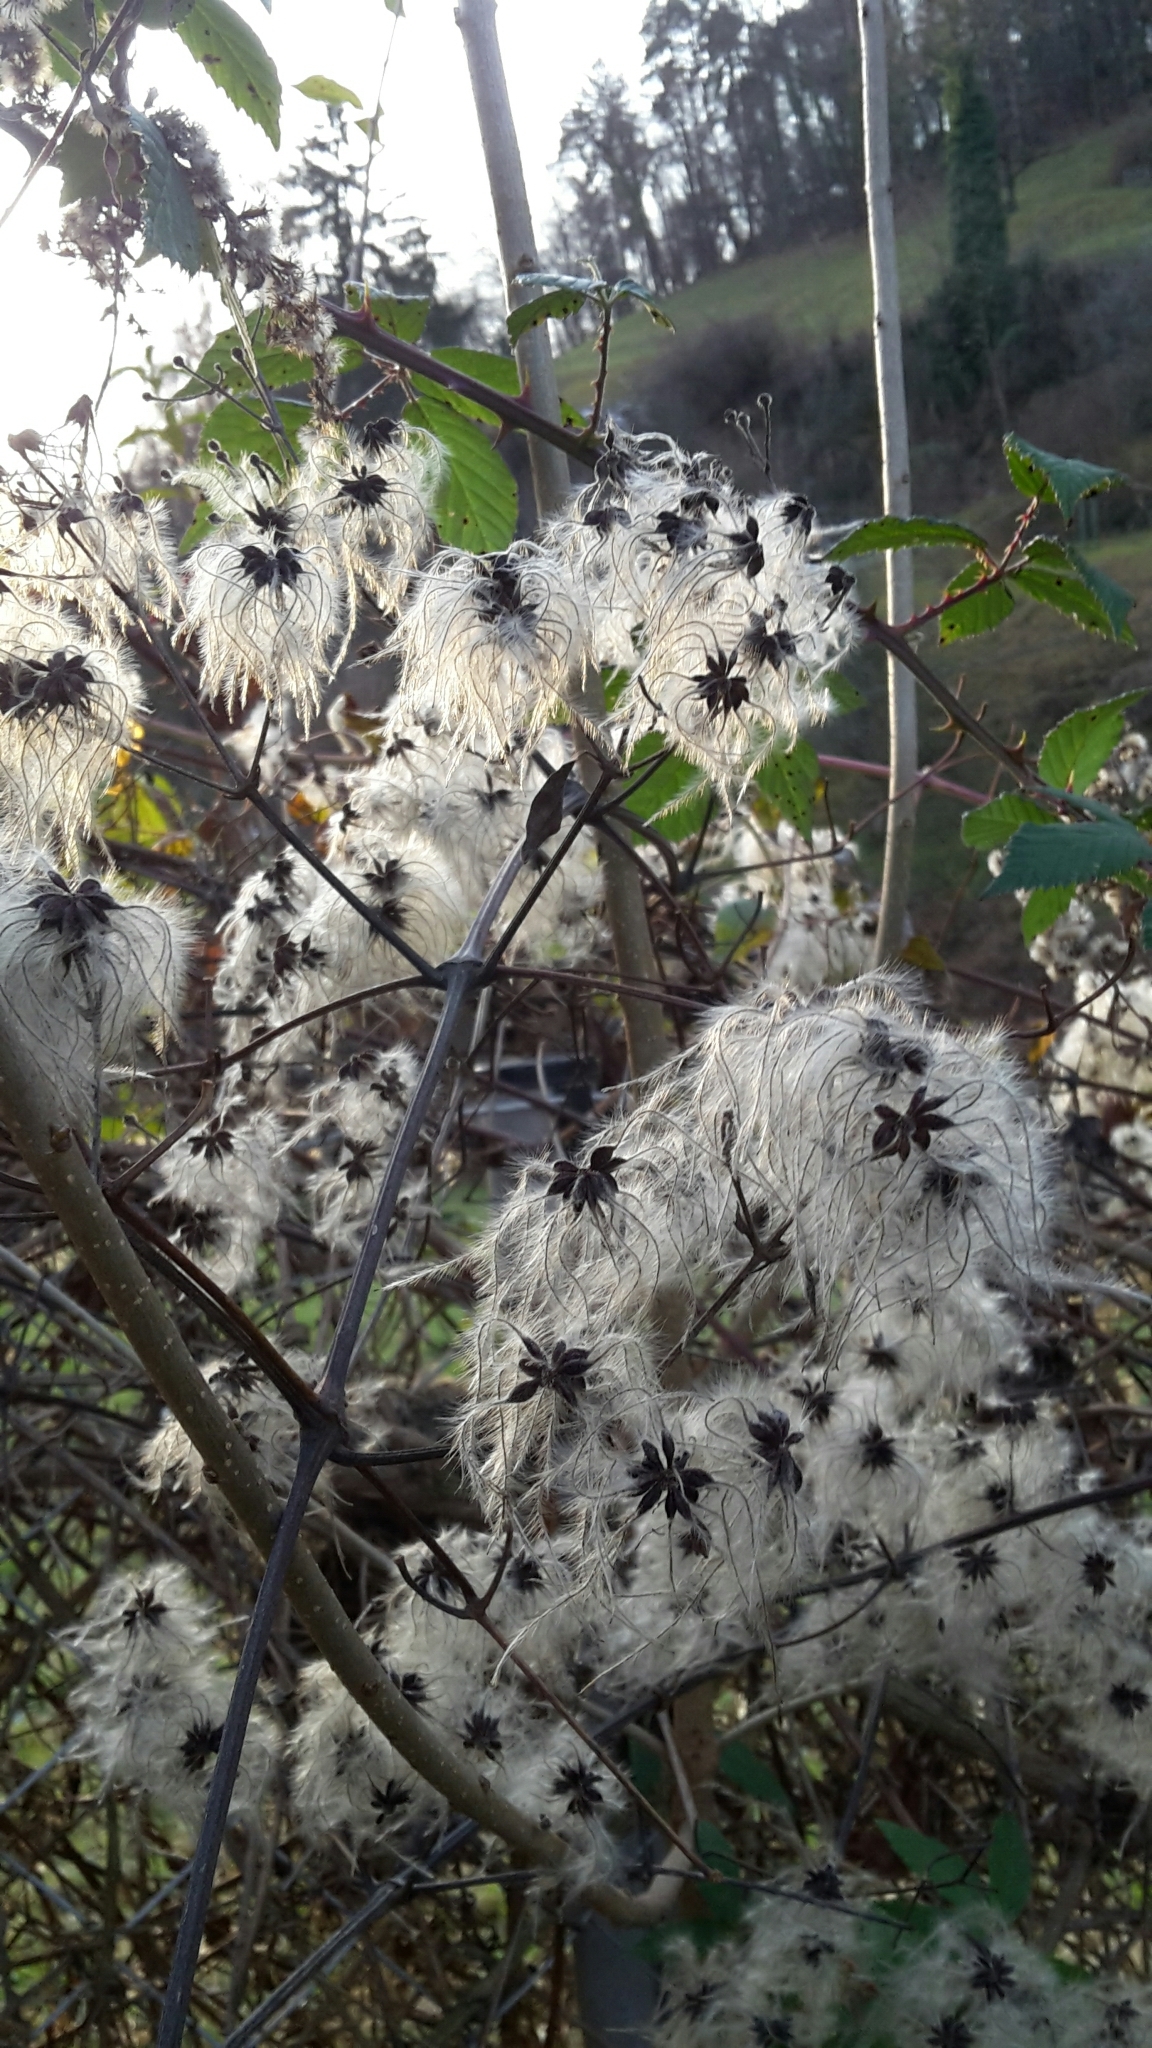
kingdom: Plantae
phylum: Tracheophyta
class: Magnoliopsida
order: Ranunculales
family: Ranunculaceae
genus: Clematis
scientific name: Clematis vitalba
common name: Evergreen clematis
